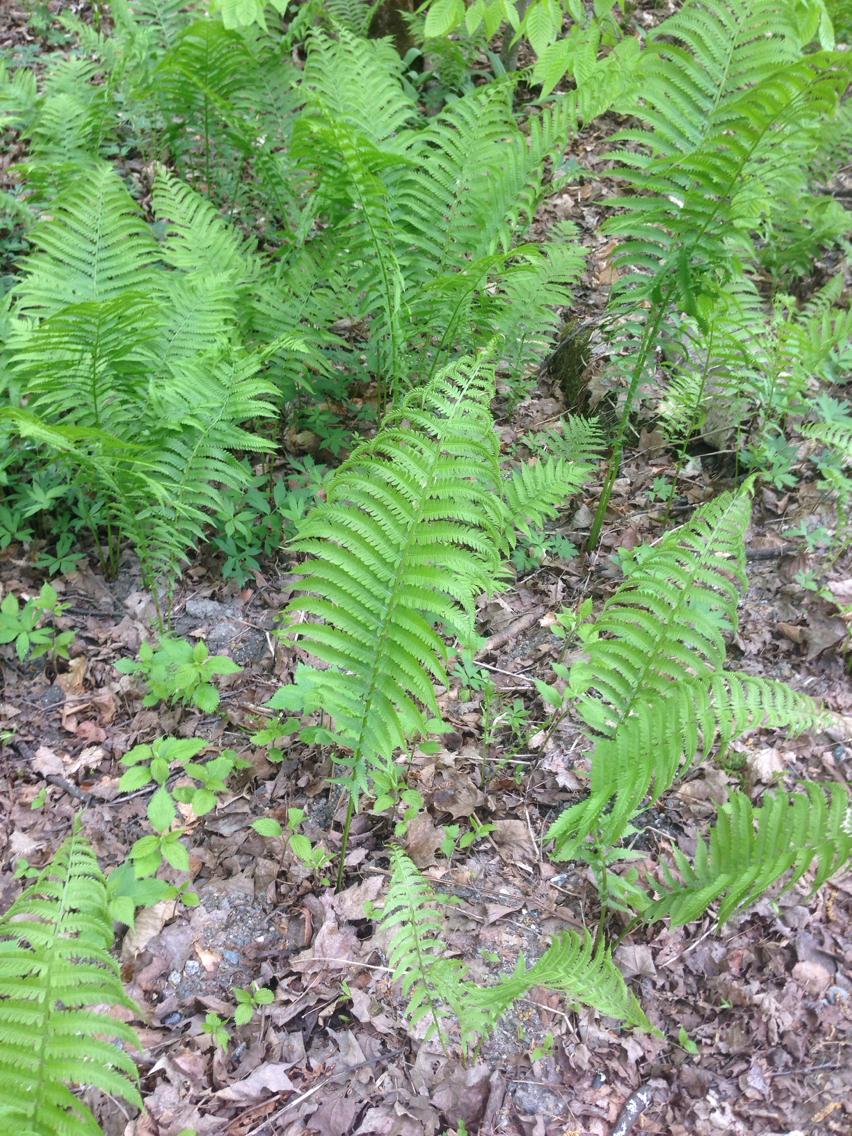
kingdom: Plantae
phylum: Tracheophyta
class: Polypodiopsida
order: Polypodiales
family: Onocleaceae
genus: Matteuccia
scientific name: Matteuccia struthiopteris
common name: Ostrich fern
